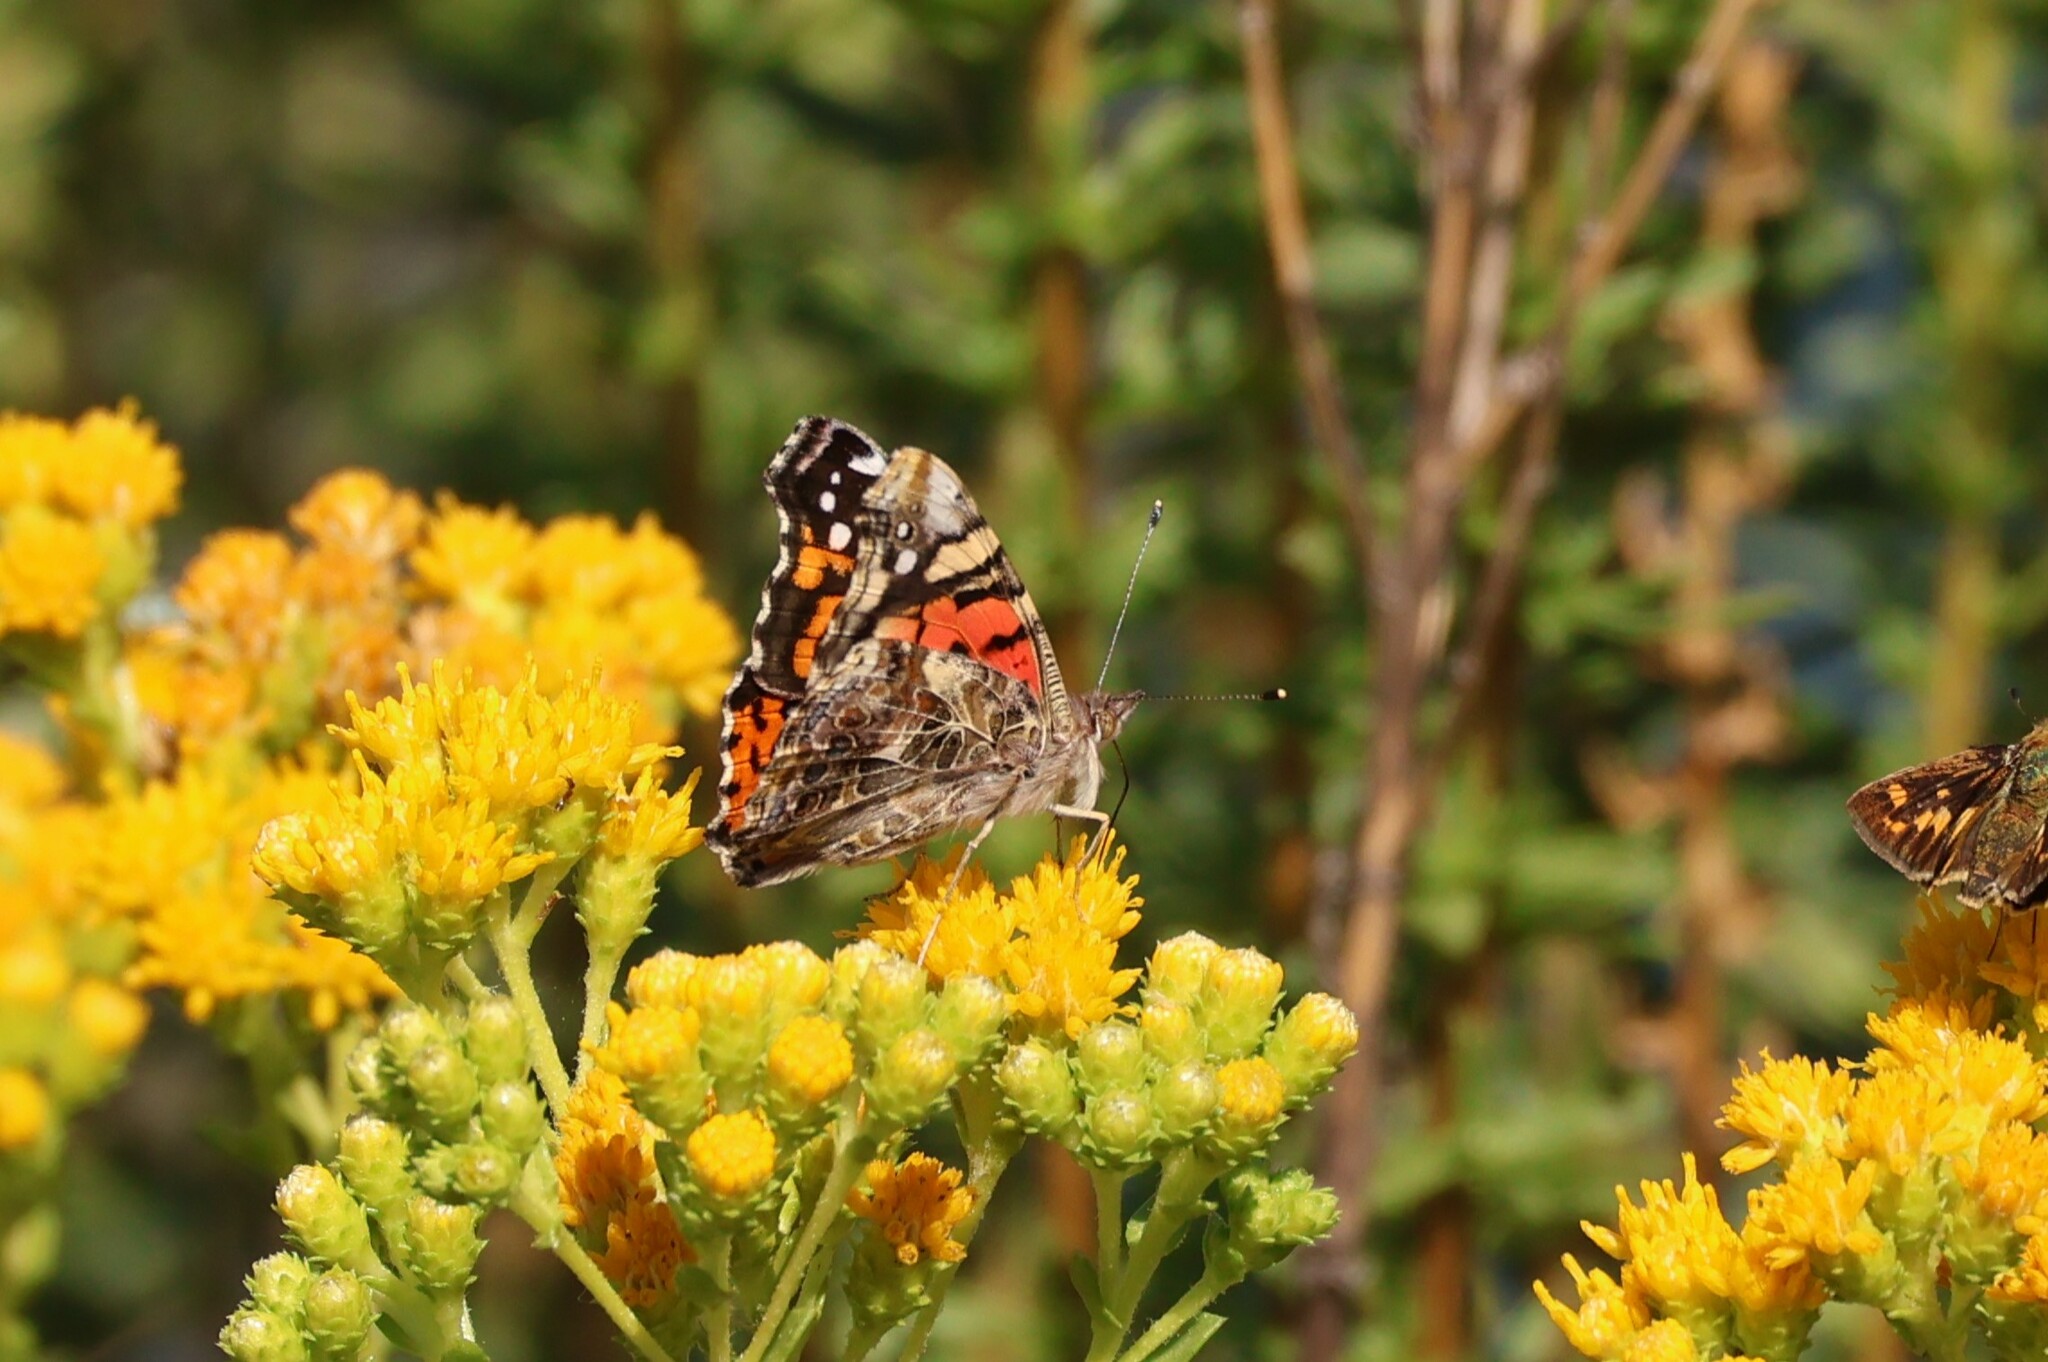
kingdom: Animalia
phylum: Arthropoda
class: Insecta
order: Lepidoptera
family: Nymphalidae
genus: Vanessa
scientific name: Vanessa annabella
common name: West coast lady
